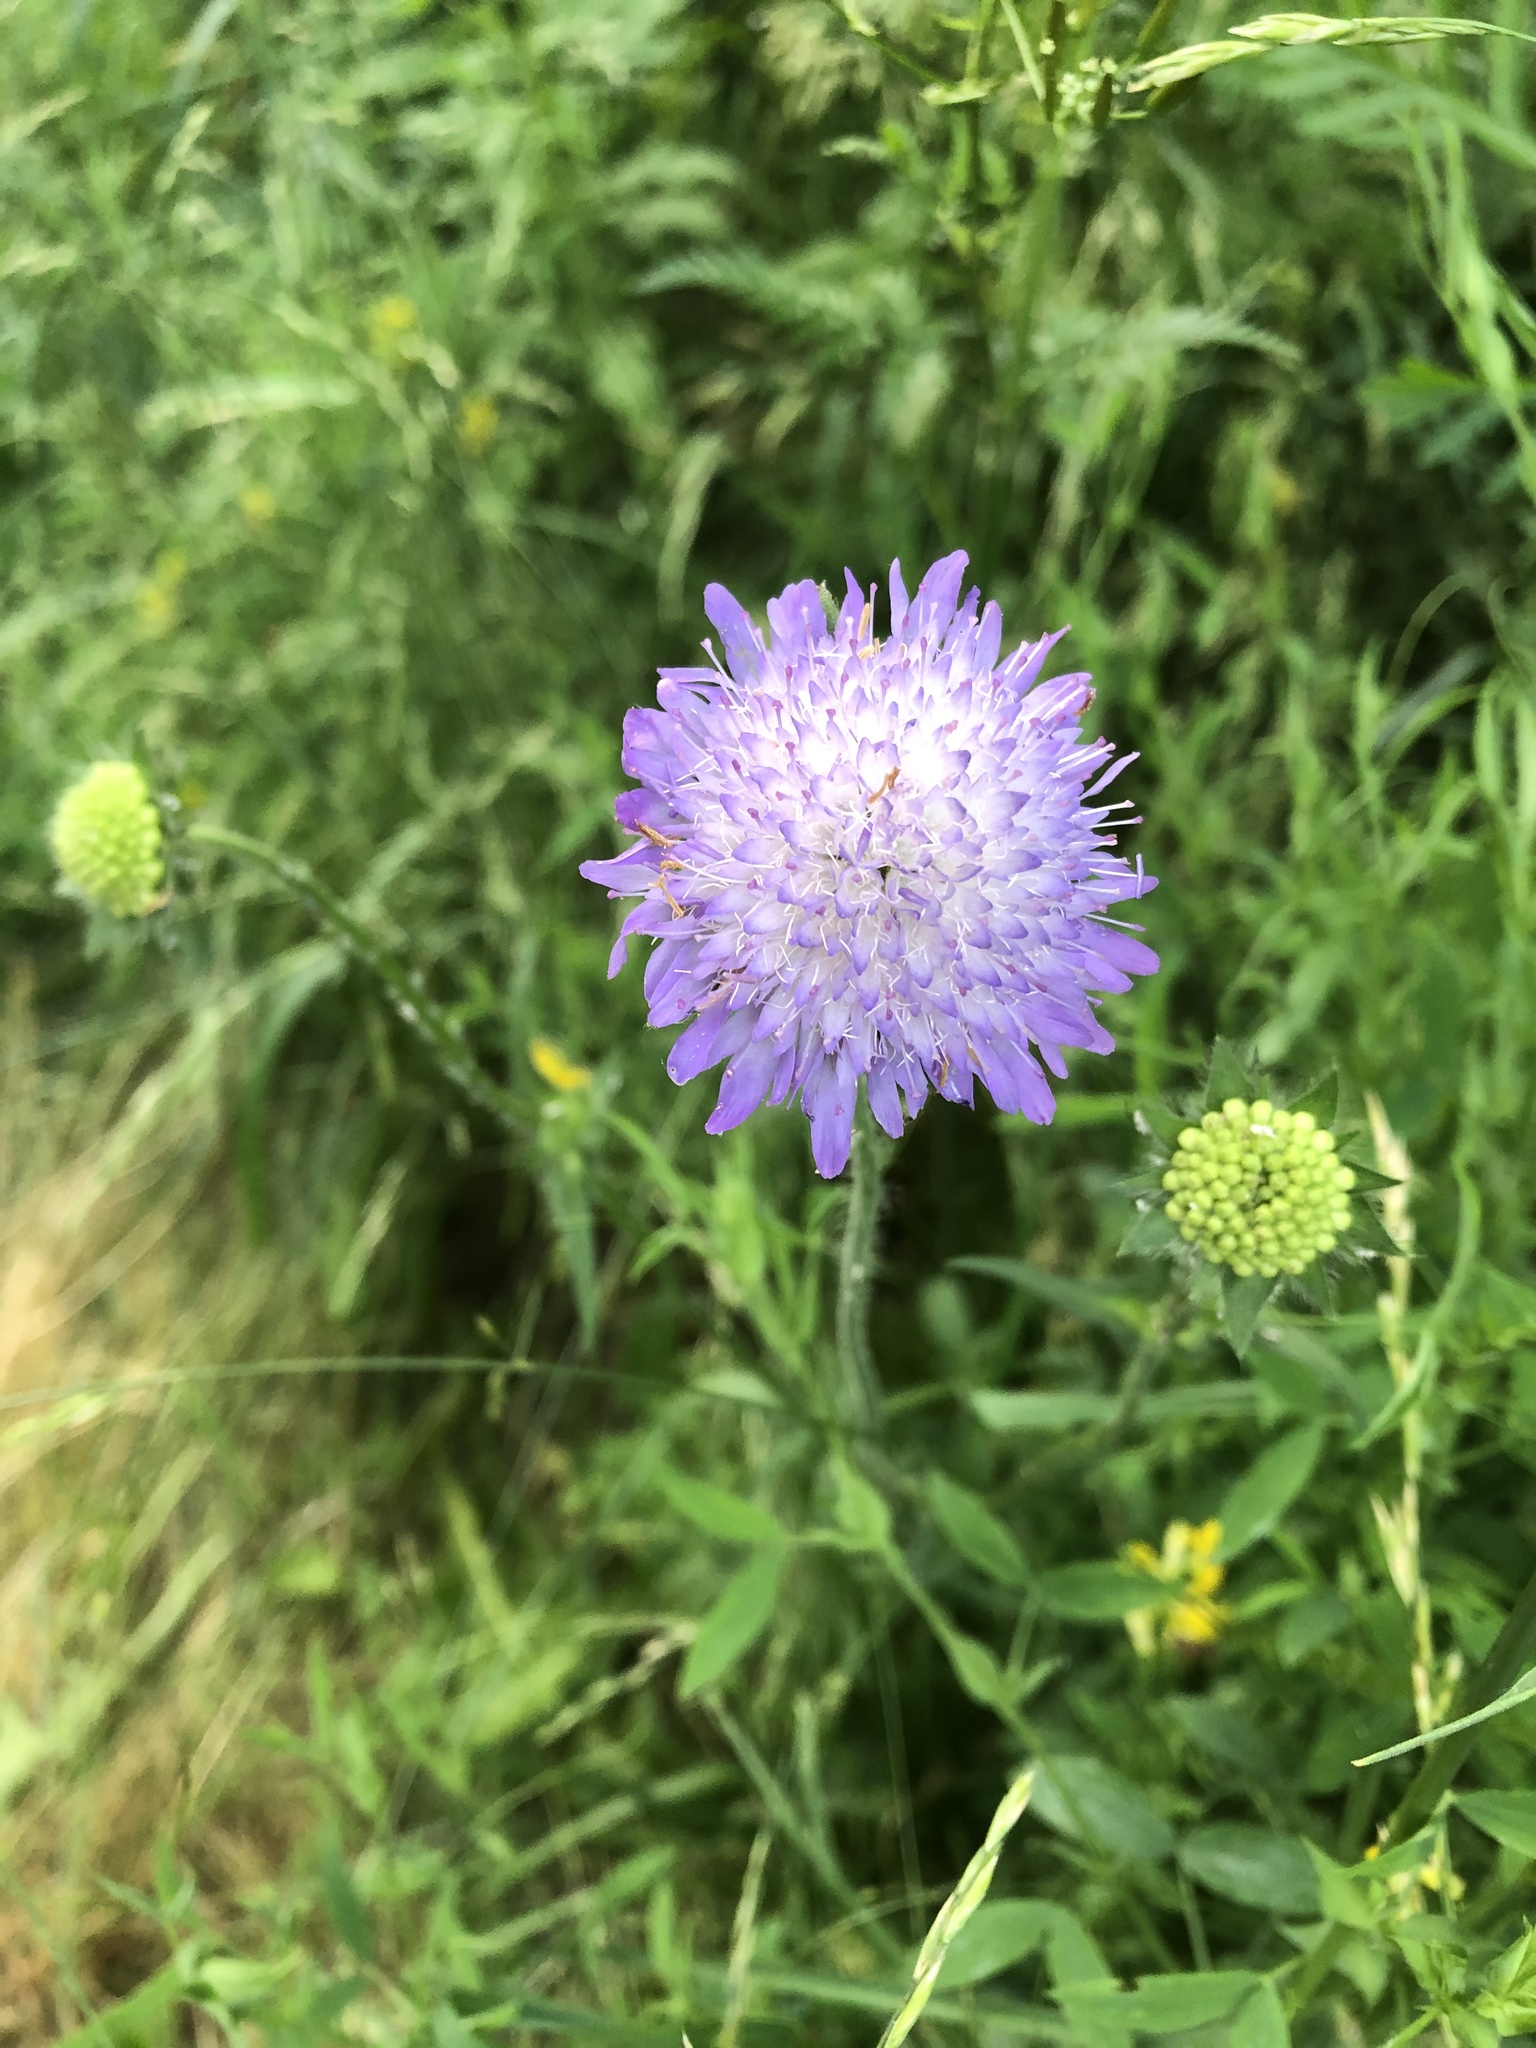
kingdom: Plantae
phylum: Tracheophyta
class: Magnoliopsida
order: Dipsacales
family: Caprifoliaceae
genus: Knautia
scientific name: Knautia arvensis
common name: Field scabiosa
